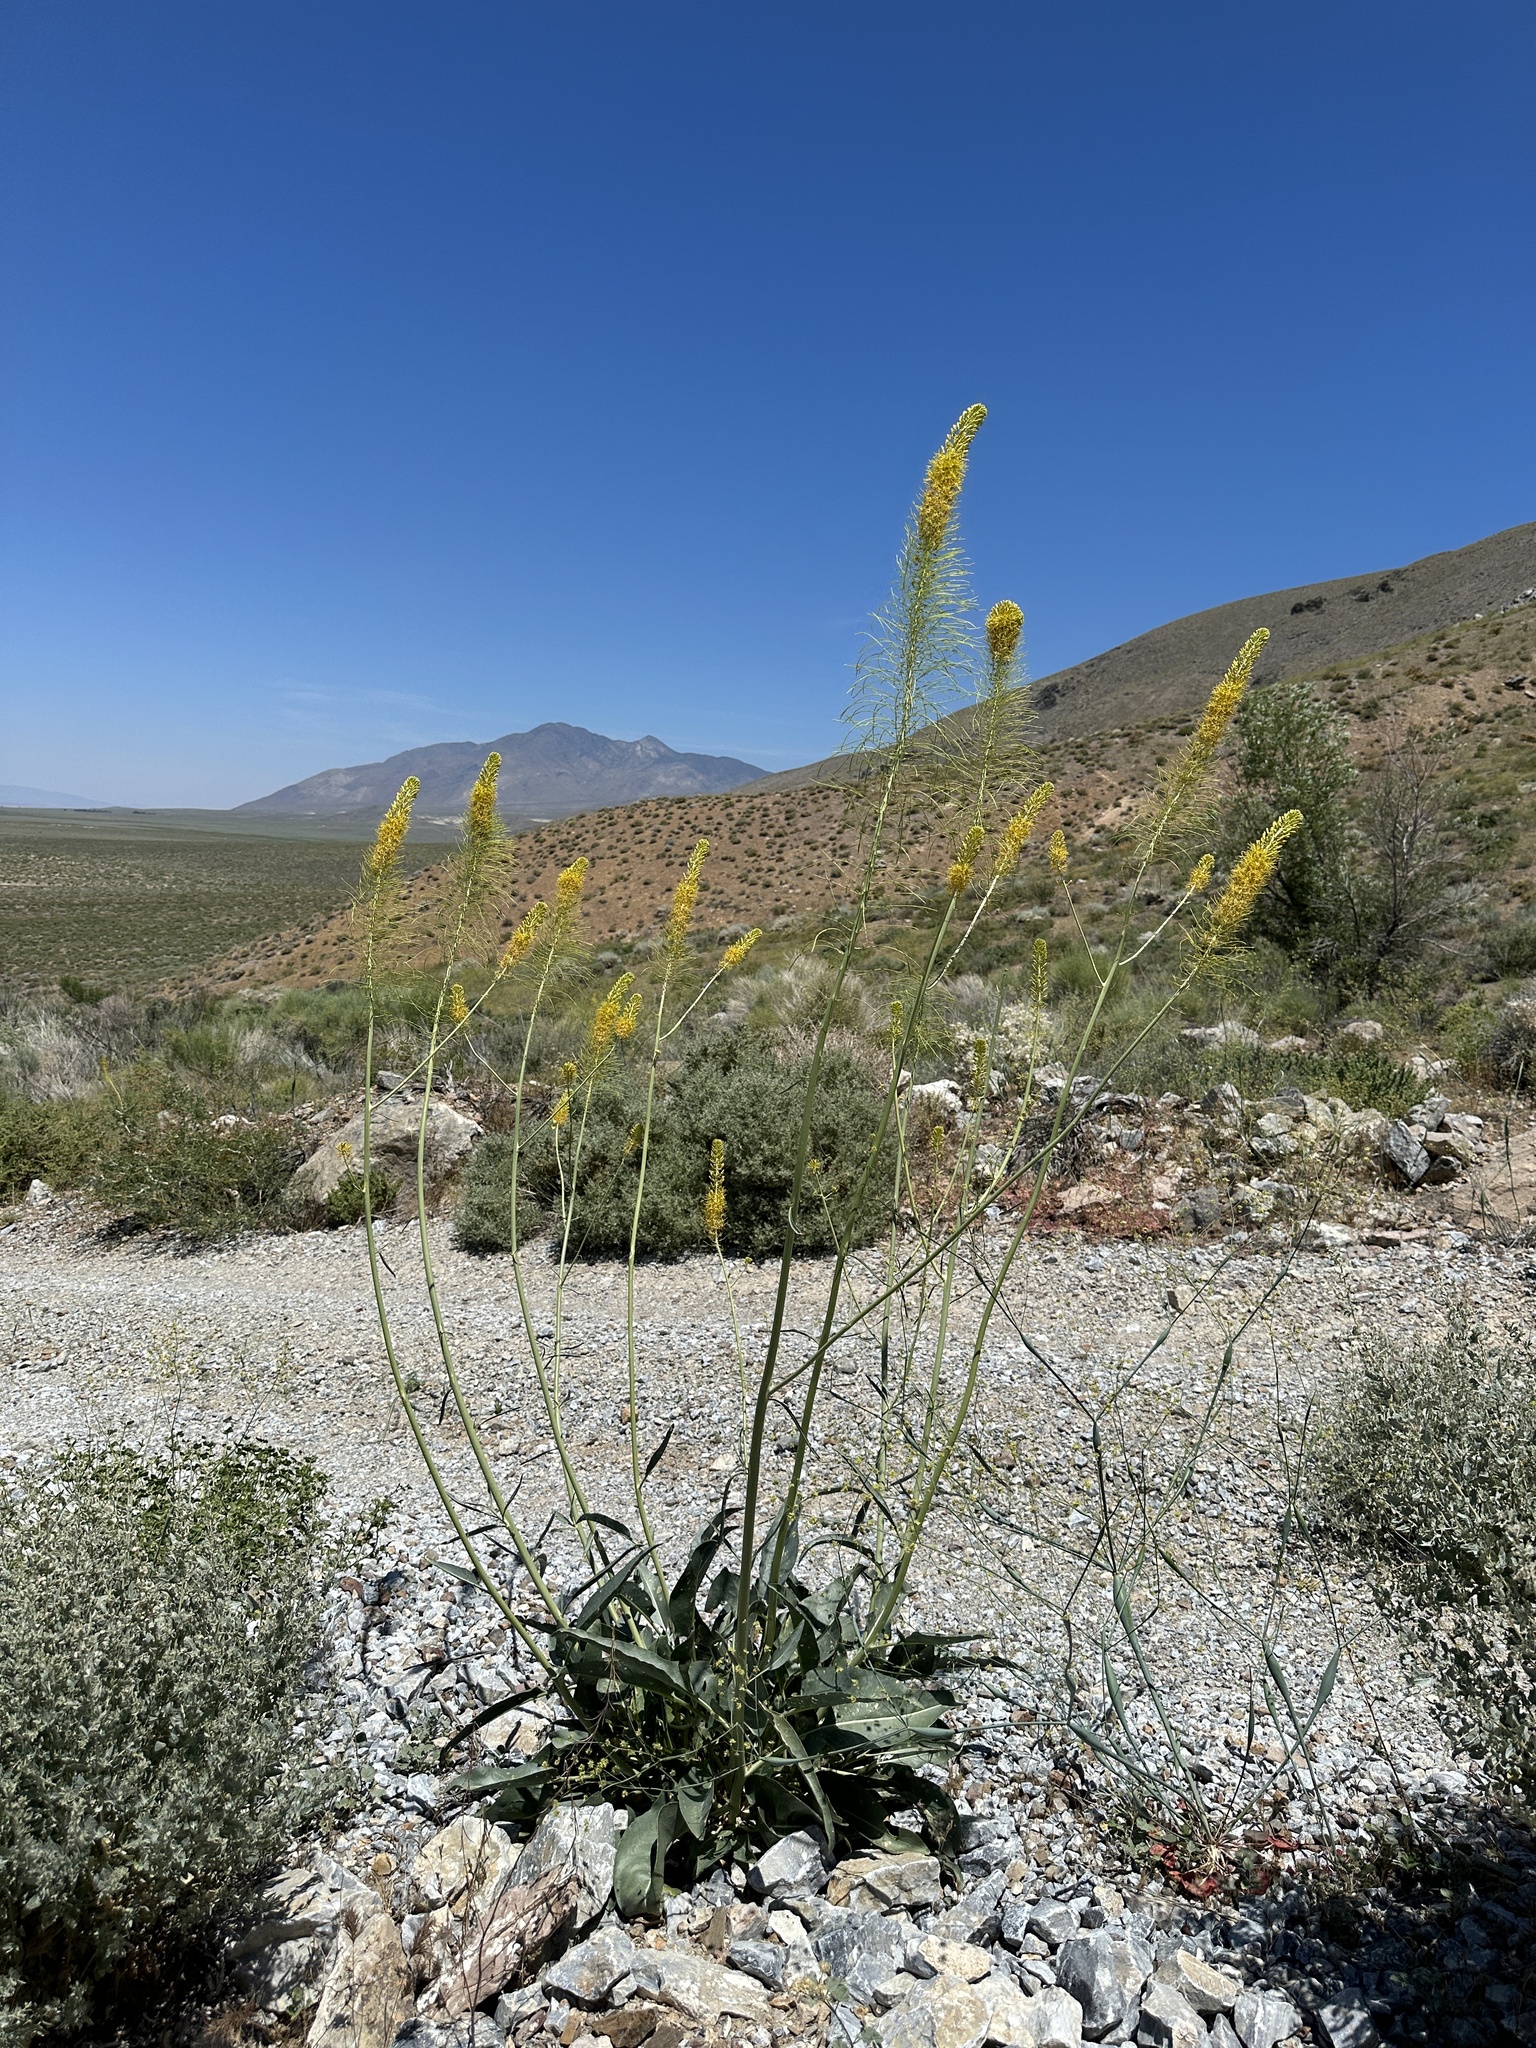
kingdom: Plantae
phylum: Tracheophyta
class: Magnoliopsida
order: Brassicales
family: Brassicaceae
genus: Stanleya
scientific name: Stanleya elata
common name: Panamint prince's plume
